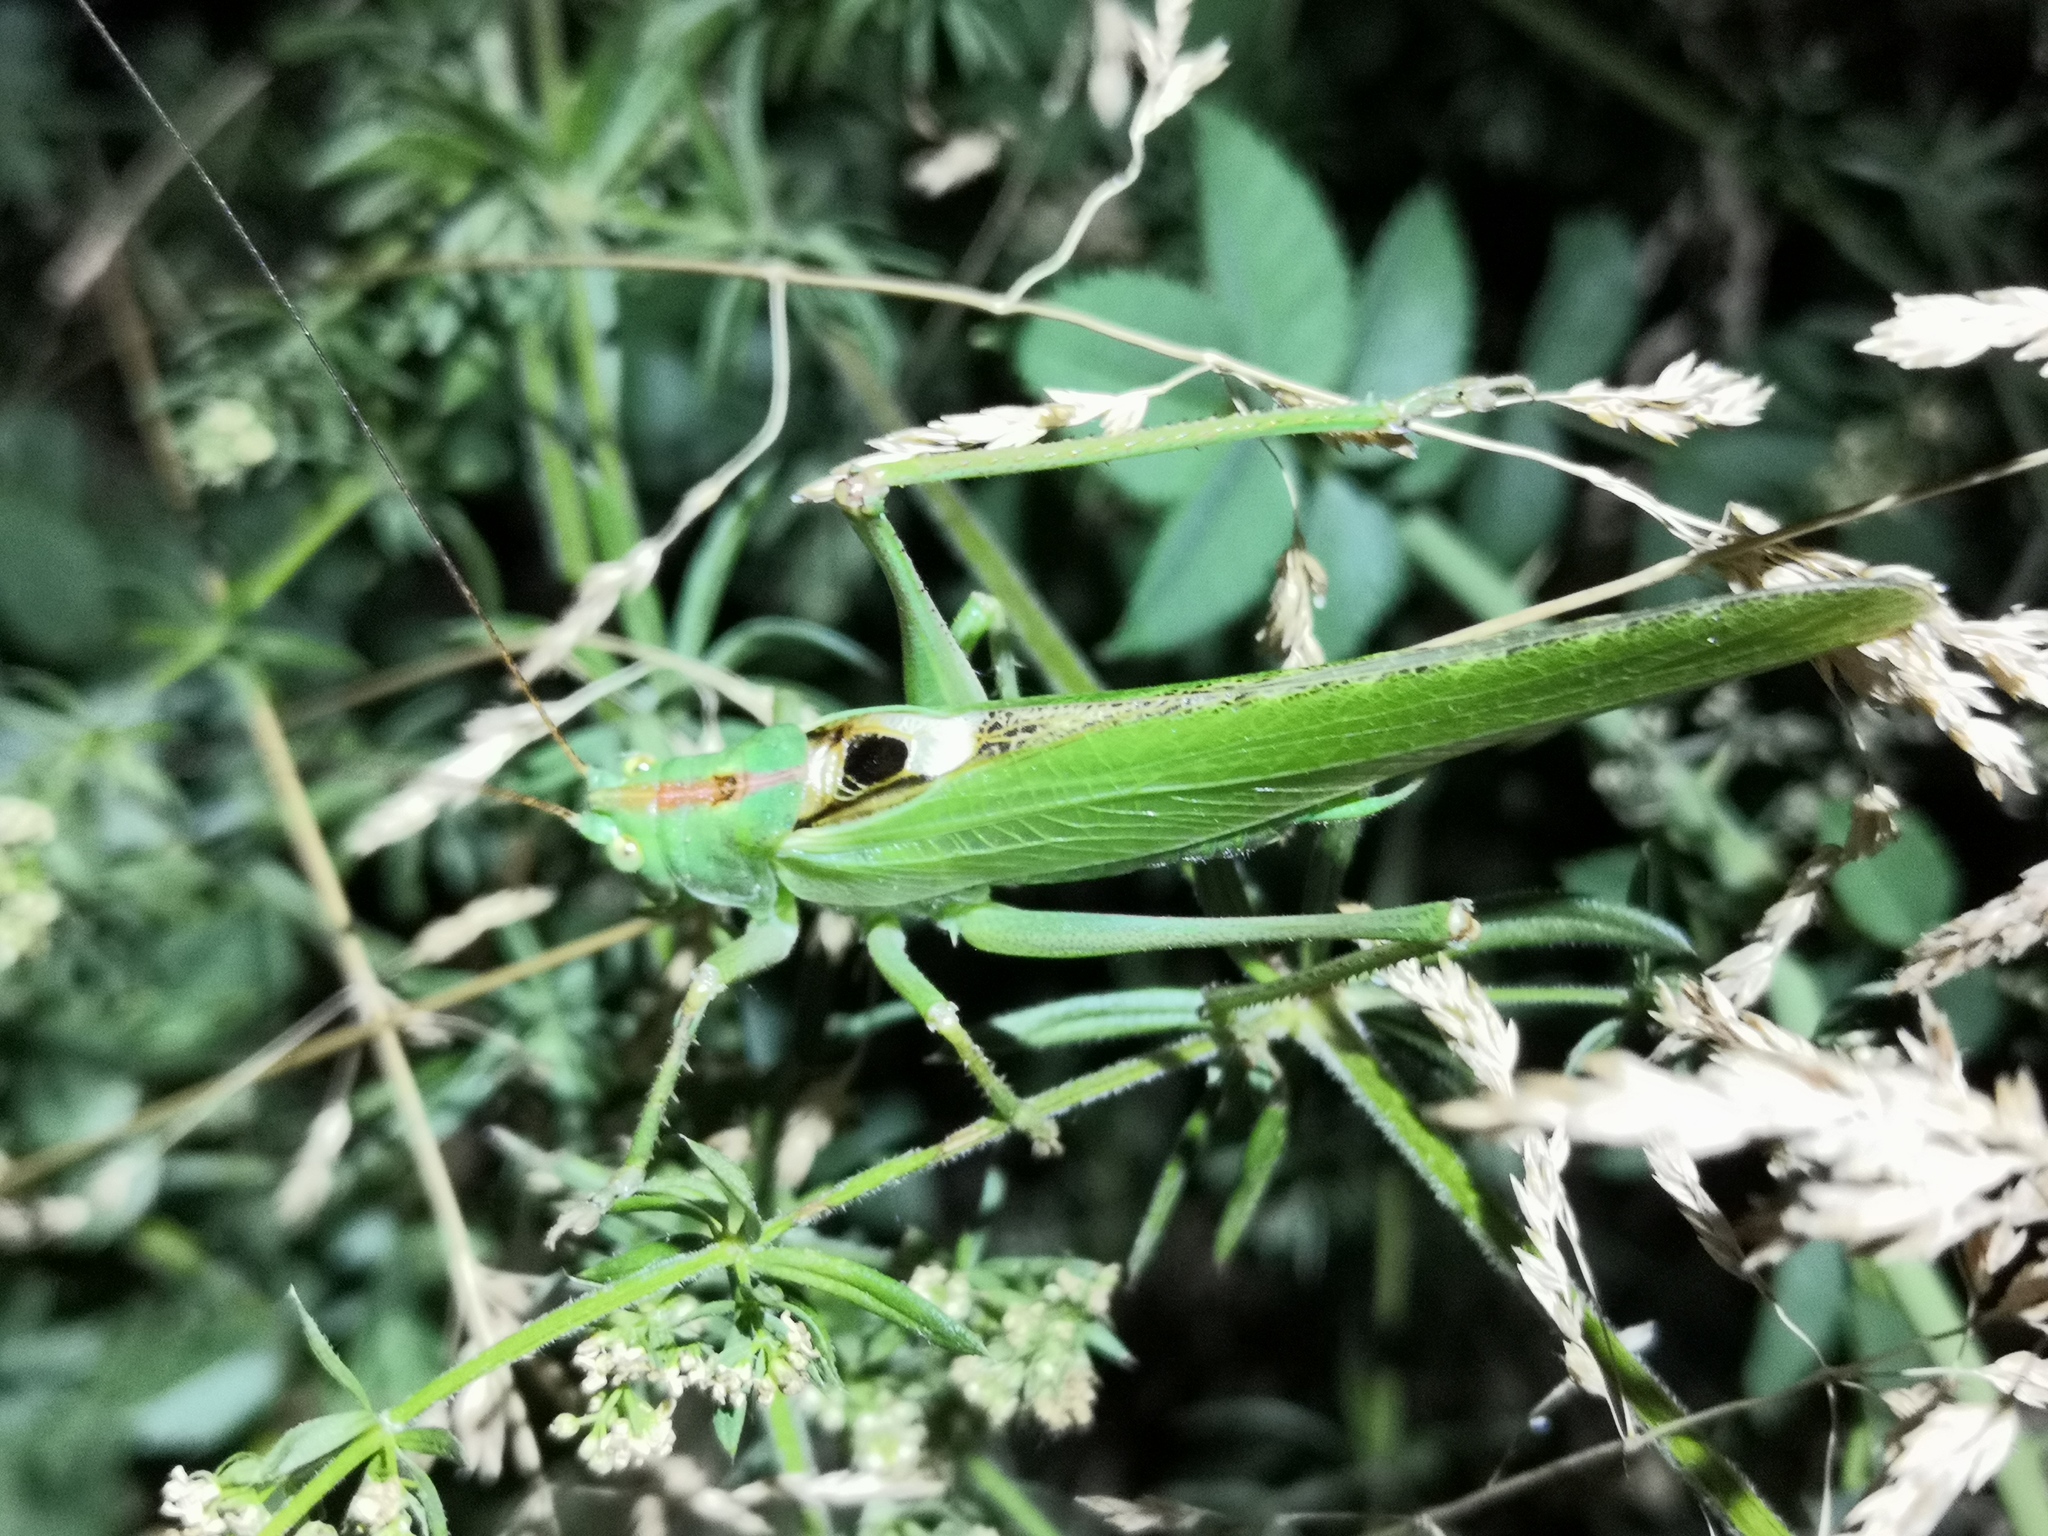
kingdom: Animalia
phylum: Arthropoda
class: Insecta
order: Orthoptera
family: Tettigoniidae
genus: Tettigonia
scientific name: Tettigonia viridissima
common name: Great green bush-cricket
